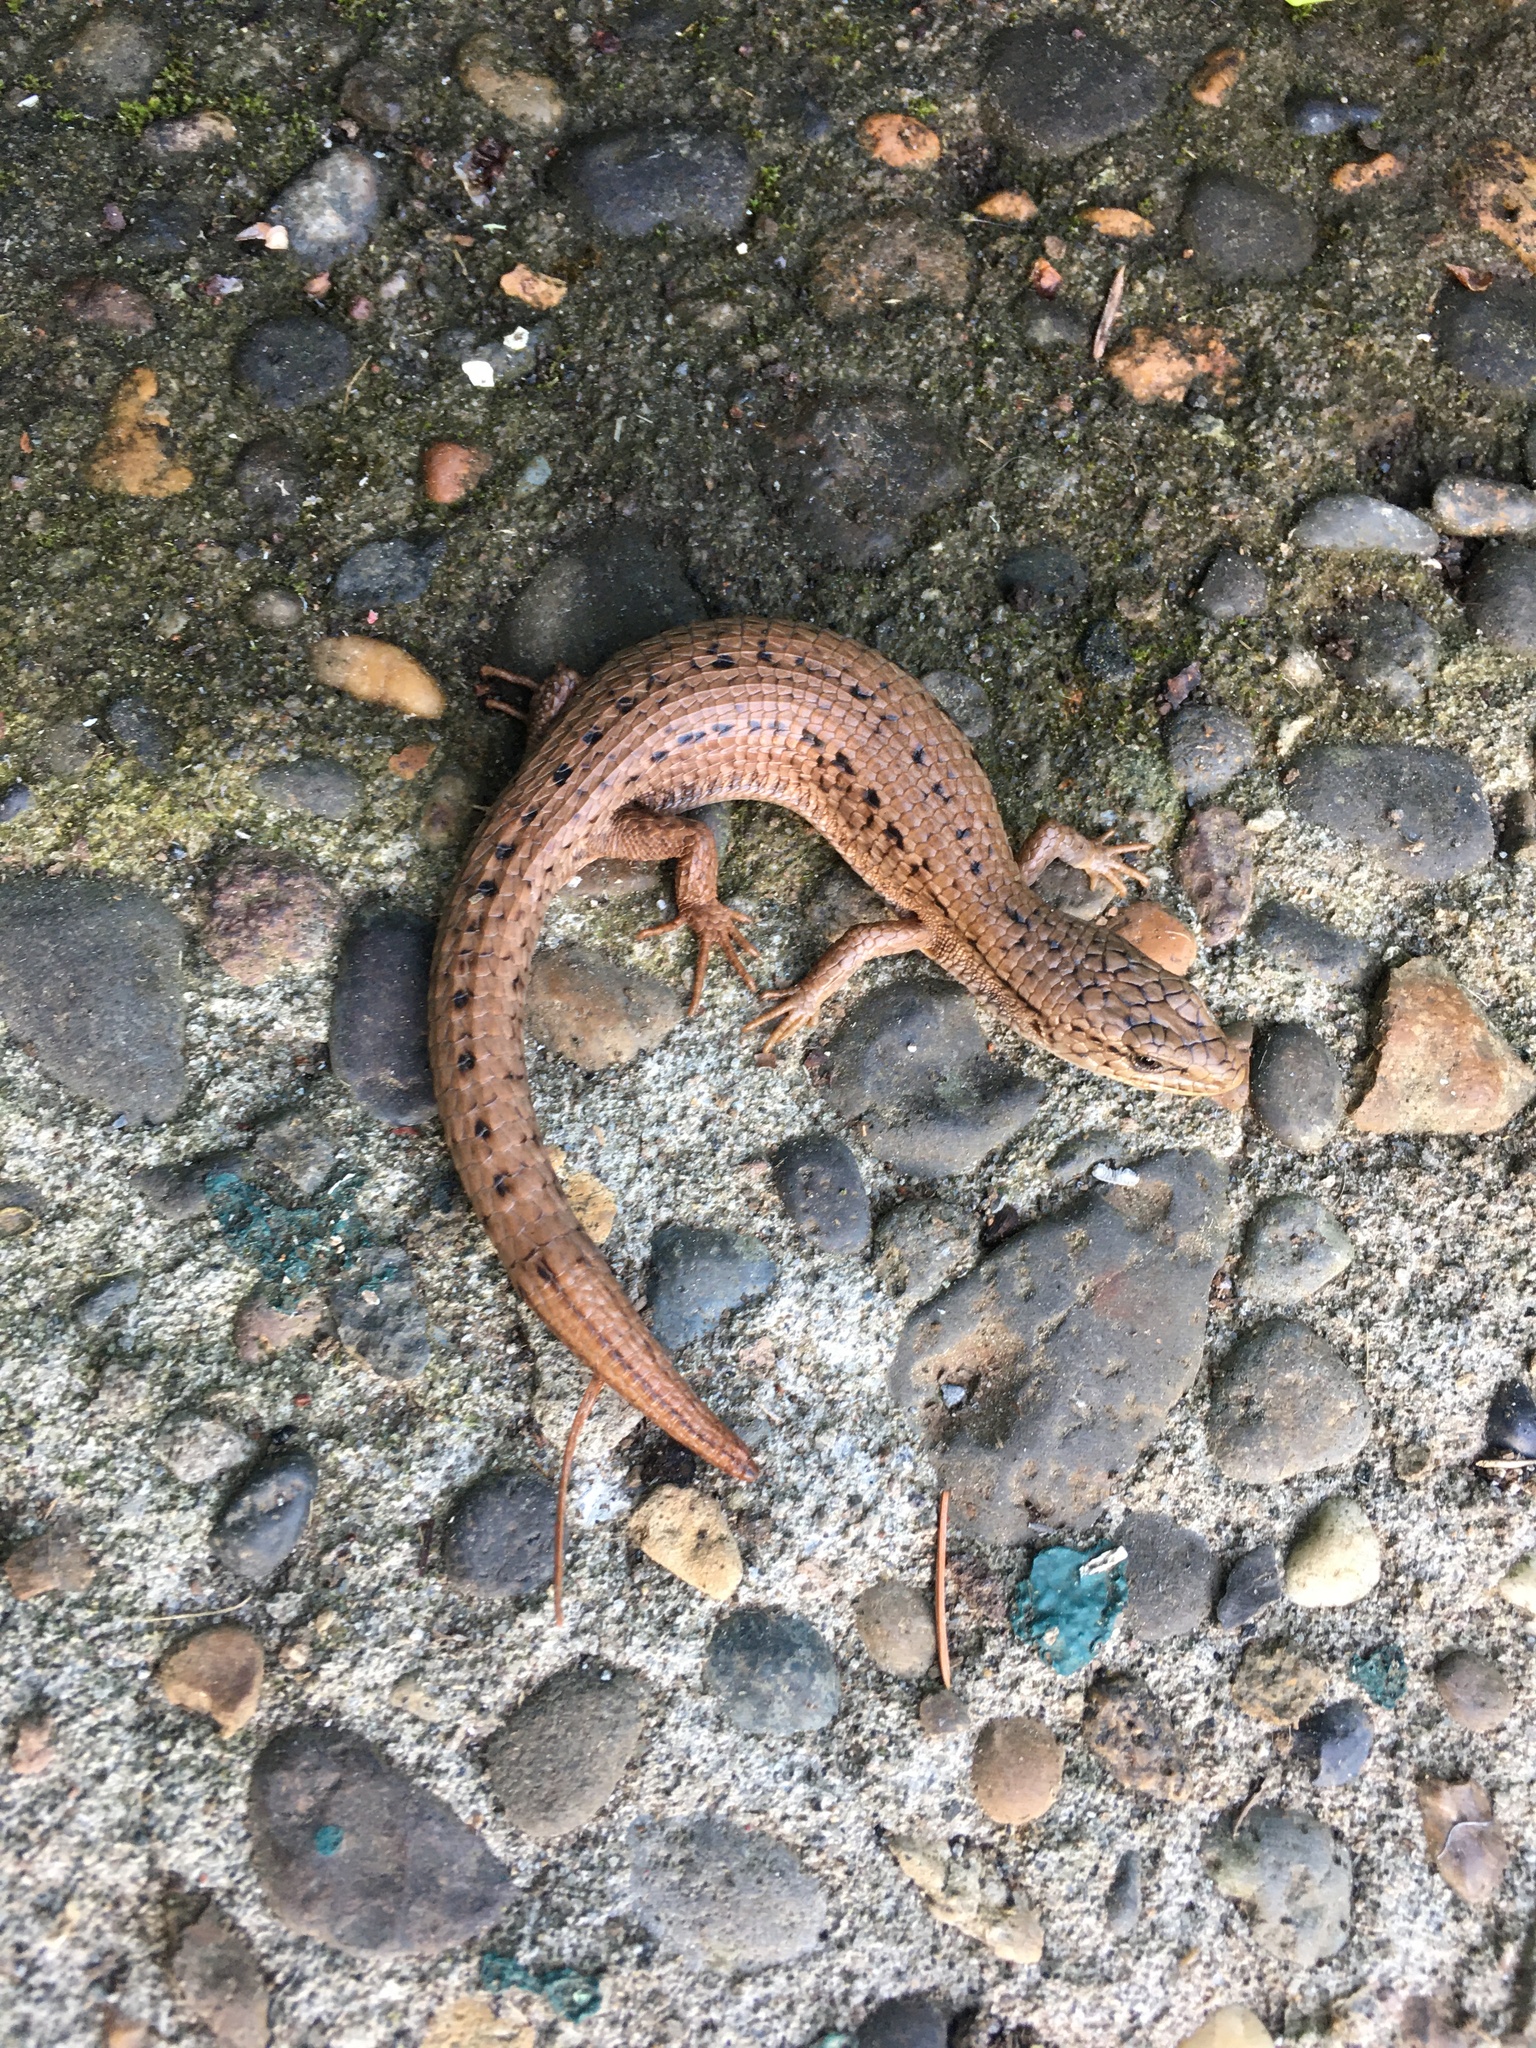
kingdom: Animalia
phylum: Chordata
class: Squamata
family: Anguidae
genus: Elgaria
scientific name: Elgaria coerulea
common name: Northern alligator lizard
